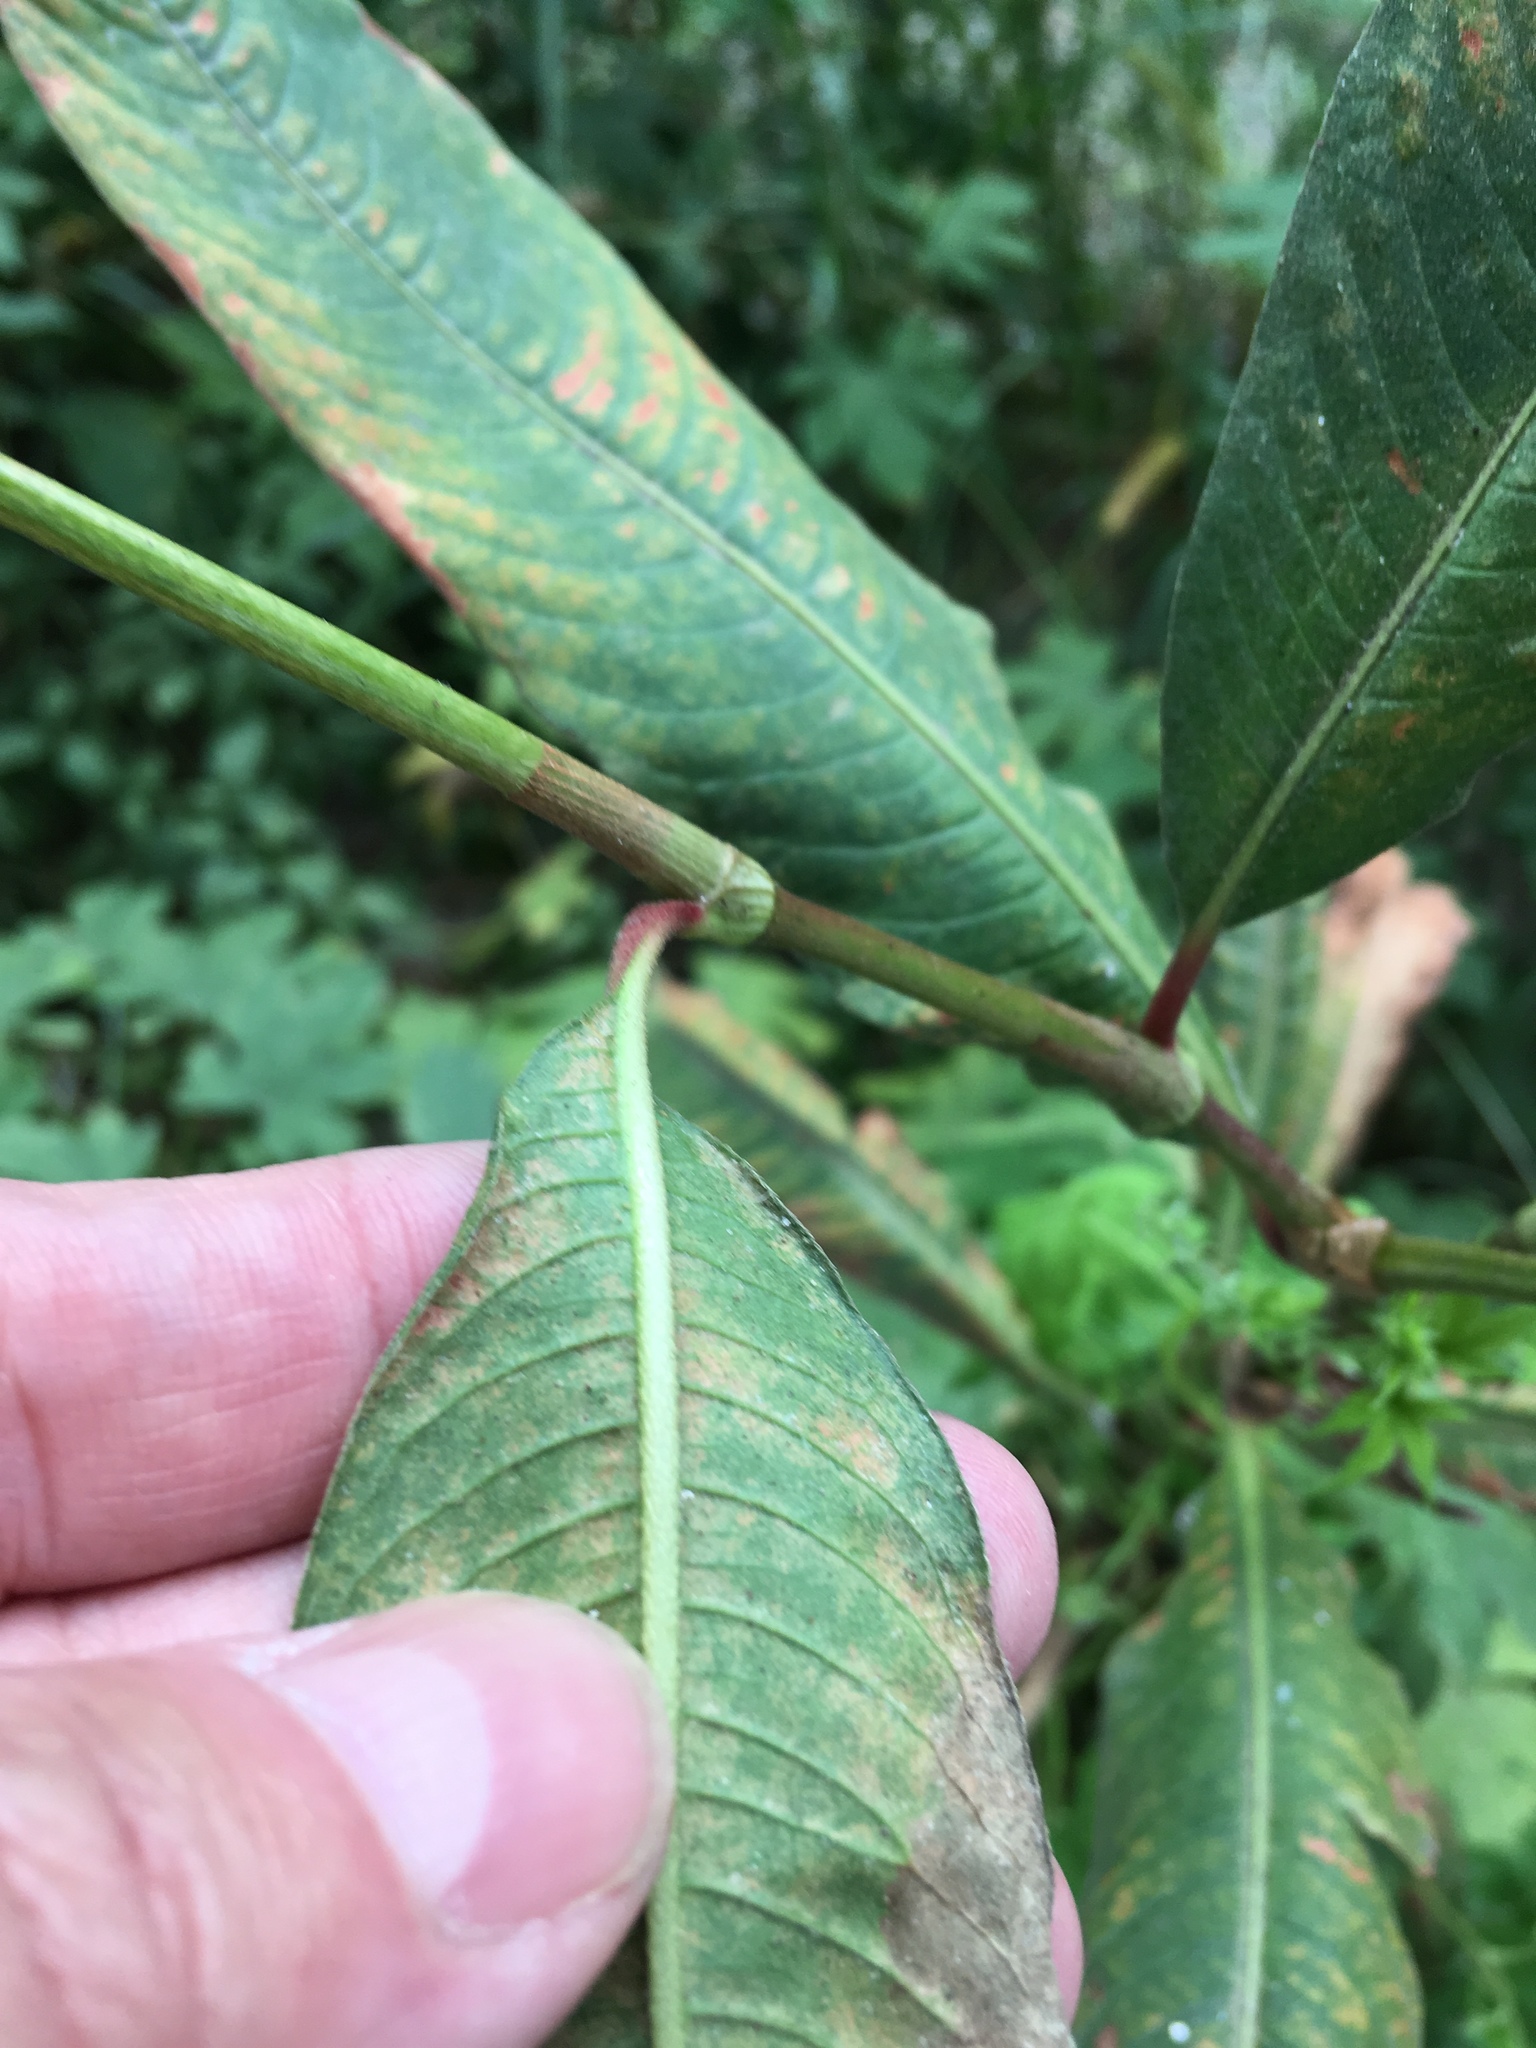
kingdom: Plantae
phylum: Tracheophyta
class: Magnoliopsida
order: Caryophyllales
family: Polygonaceae
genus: Persicaria
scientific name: Persicaria extremiorientalis
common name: Far-eastern smartweed
